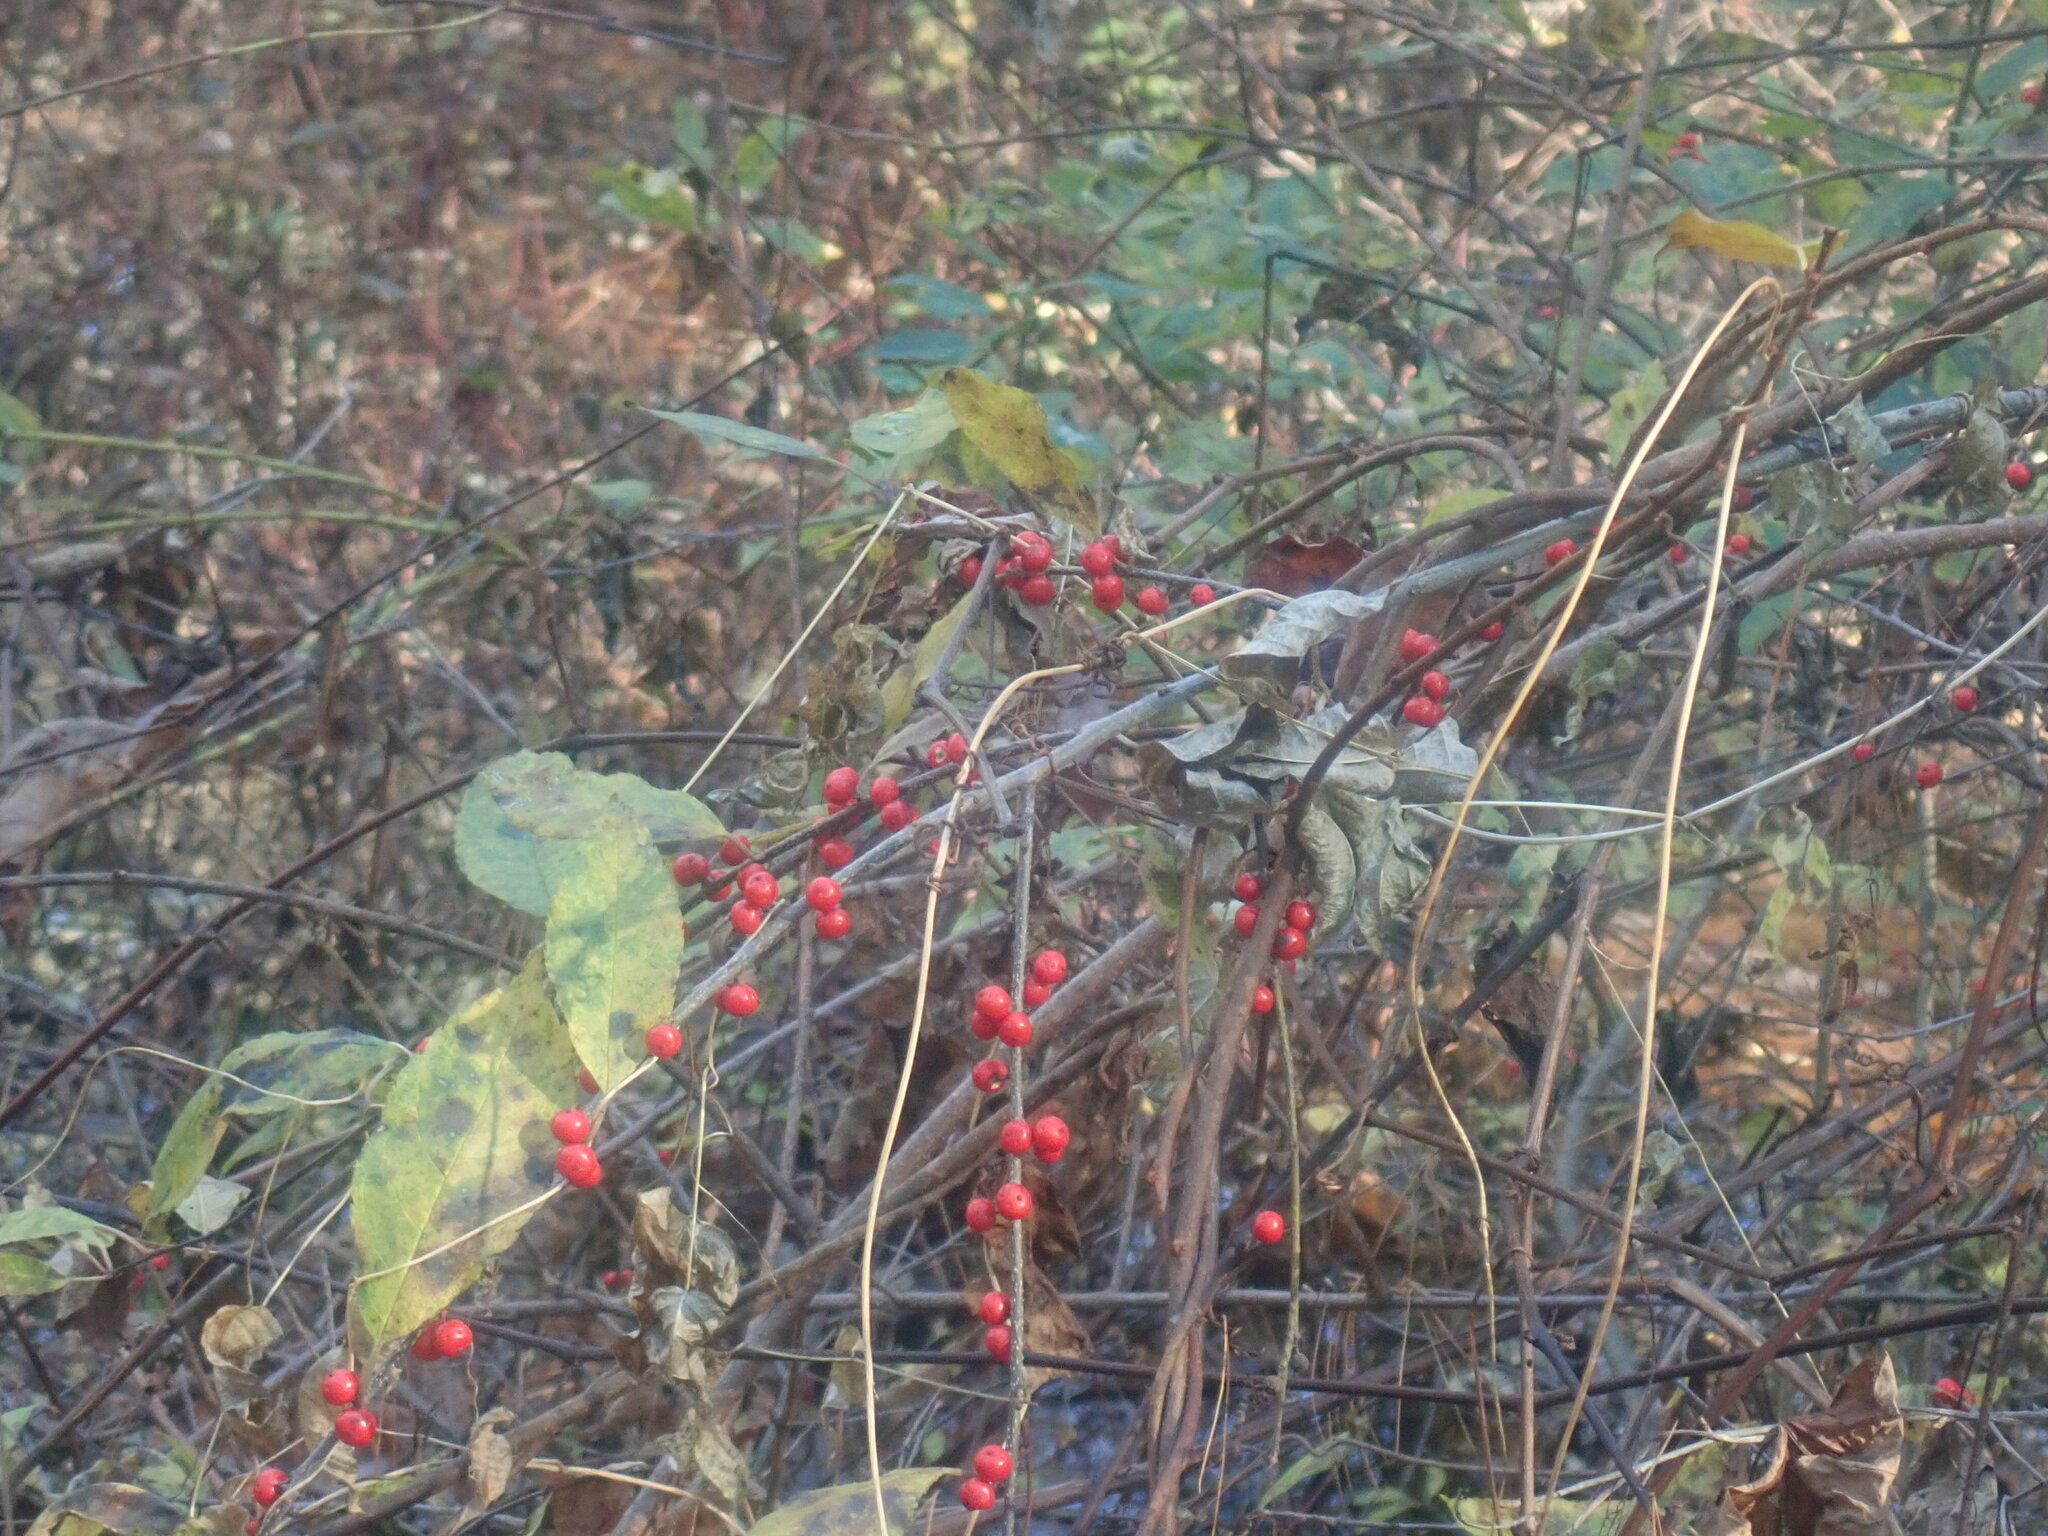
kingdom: Plantae
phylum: Tracheophyta
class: Magnoliopsida
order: Aquifoliales
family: Aquifoliaceae
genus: Ilex
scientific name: Ilex verticillata
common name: Virginia winterberry
